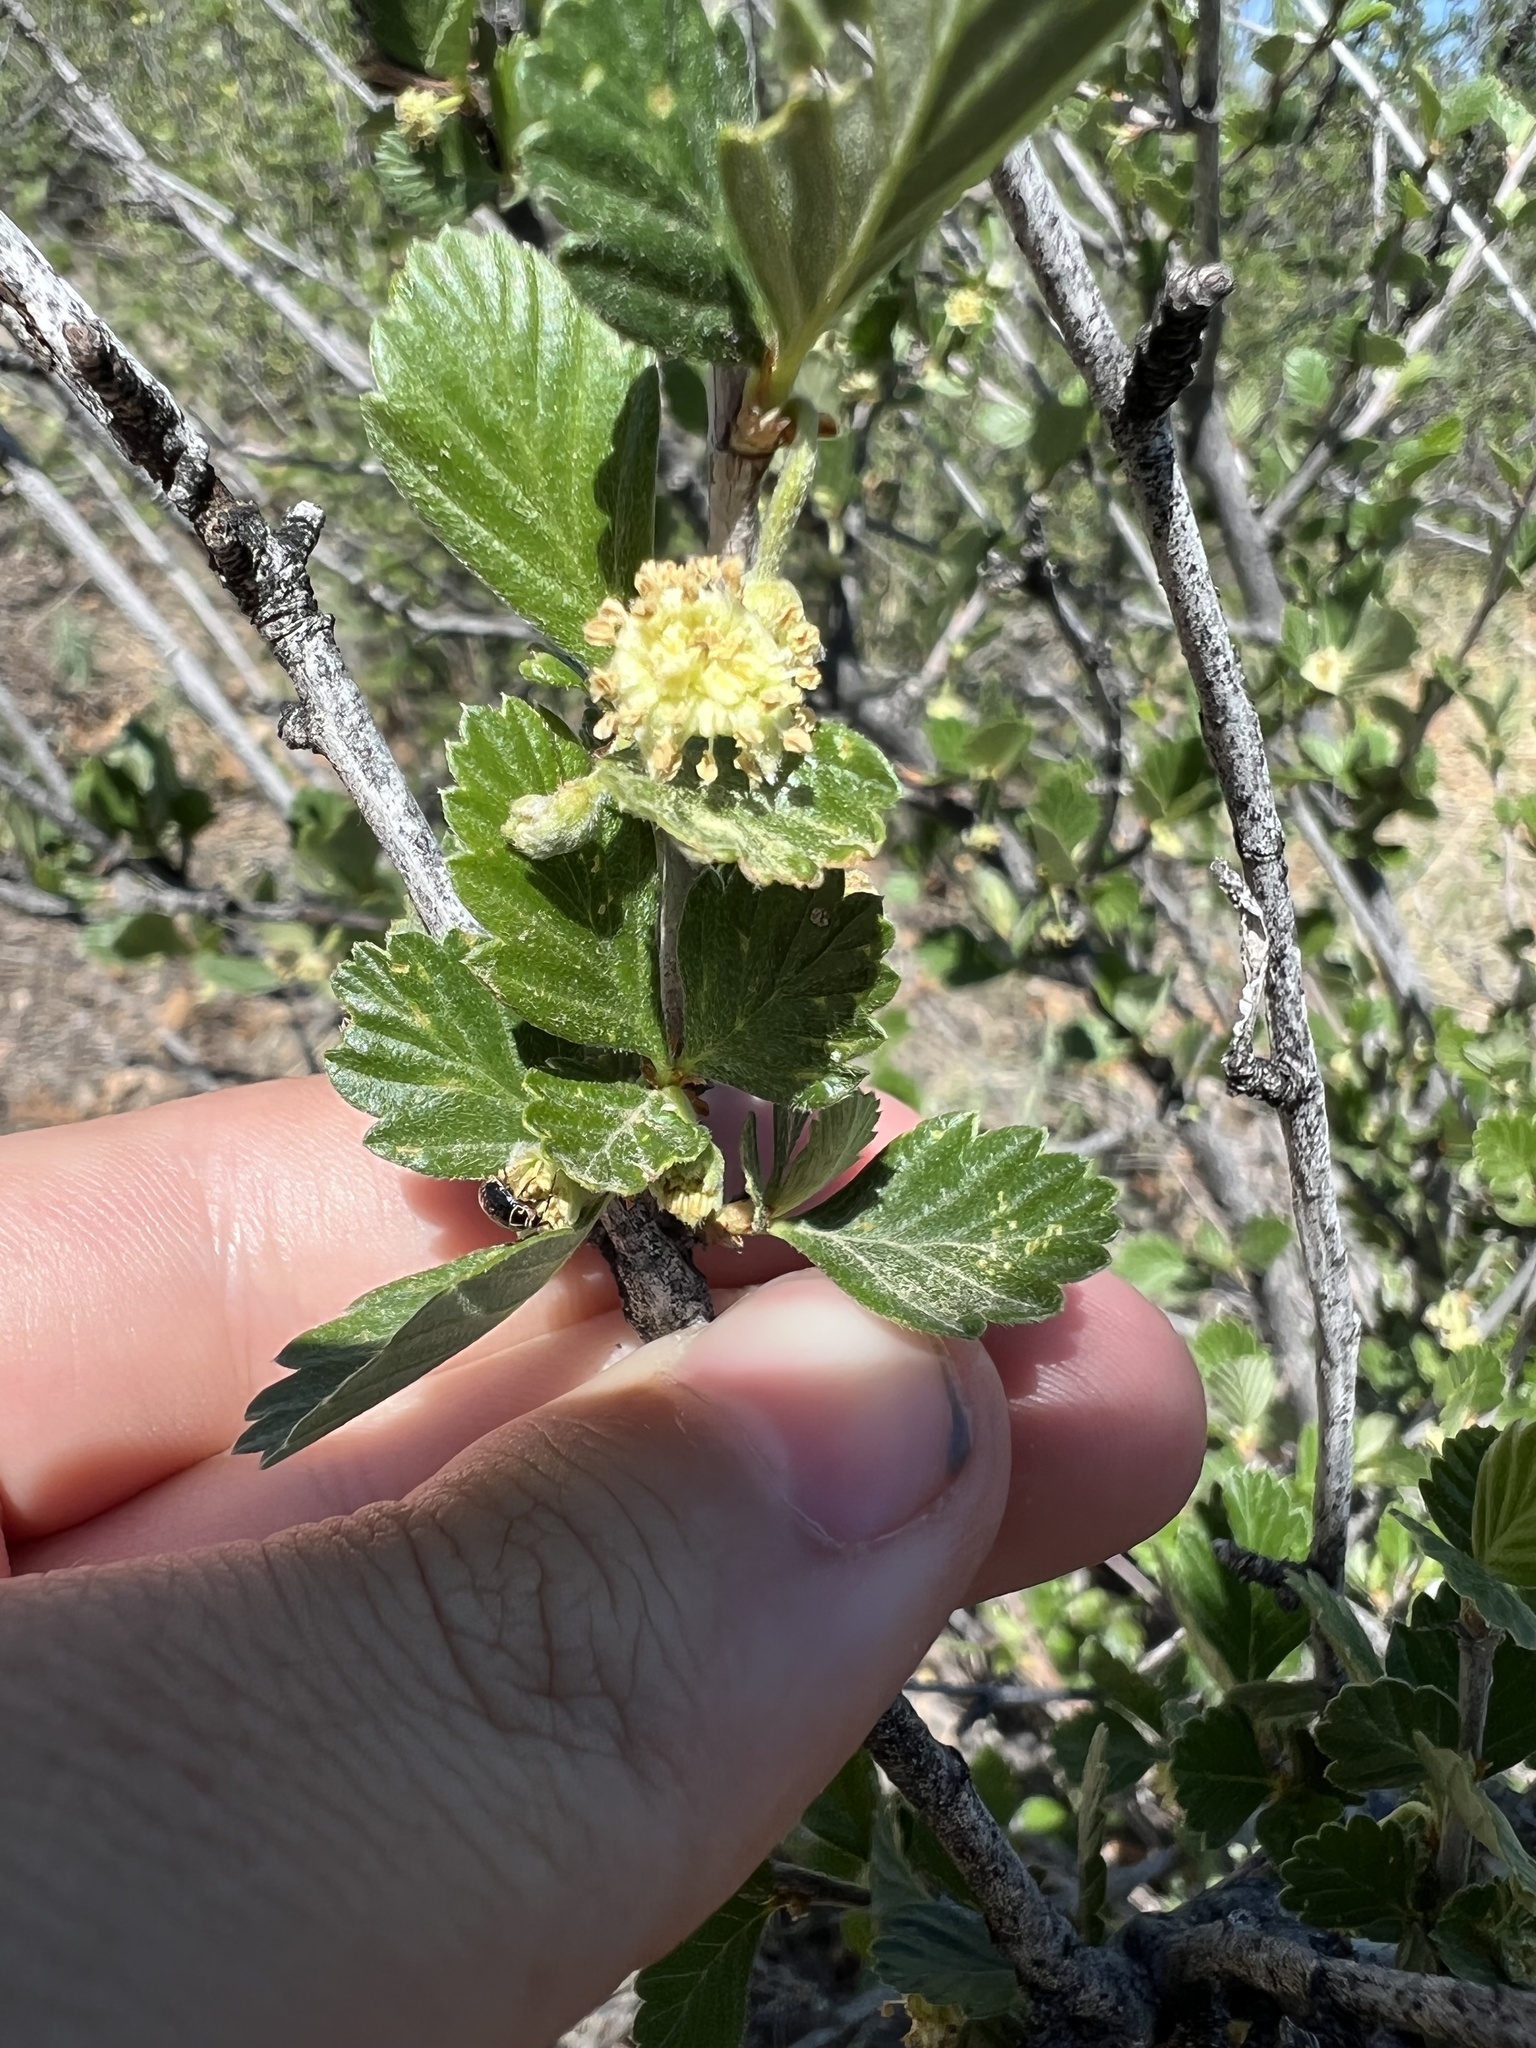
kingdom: Plantae
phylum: Tracheophyta
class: Magnoliopsida
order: Rosales
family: Rosaceae
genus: Cercocarpus
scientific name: Cercocarpus montanus
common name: Alder-leaf cercocarpus
